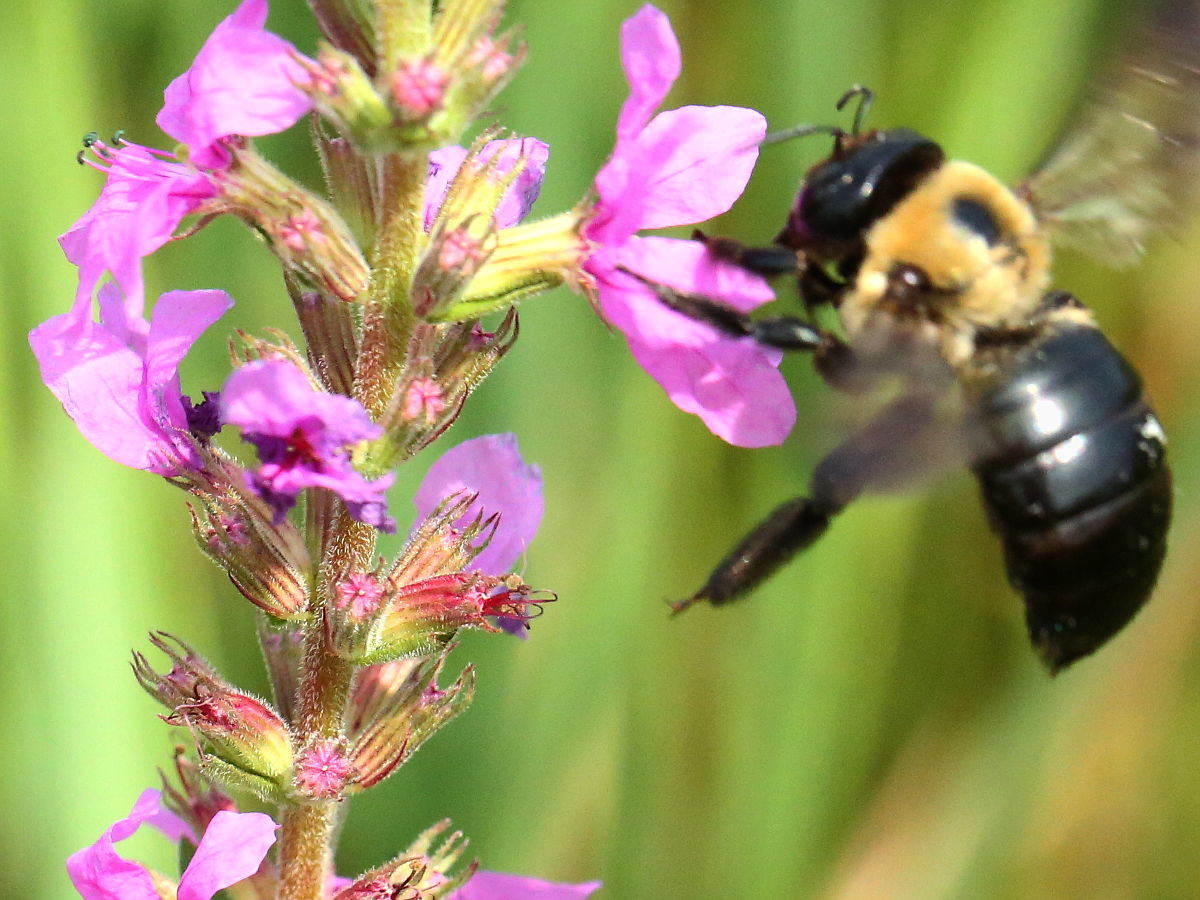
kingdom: Plantae
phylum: Tracheophyta
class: Magnoliopsida
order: Myrtales
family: Lythraceae
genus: Lythrum
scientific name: Lythrum salicaria
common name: Purple loosestrife
